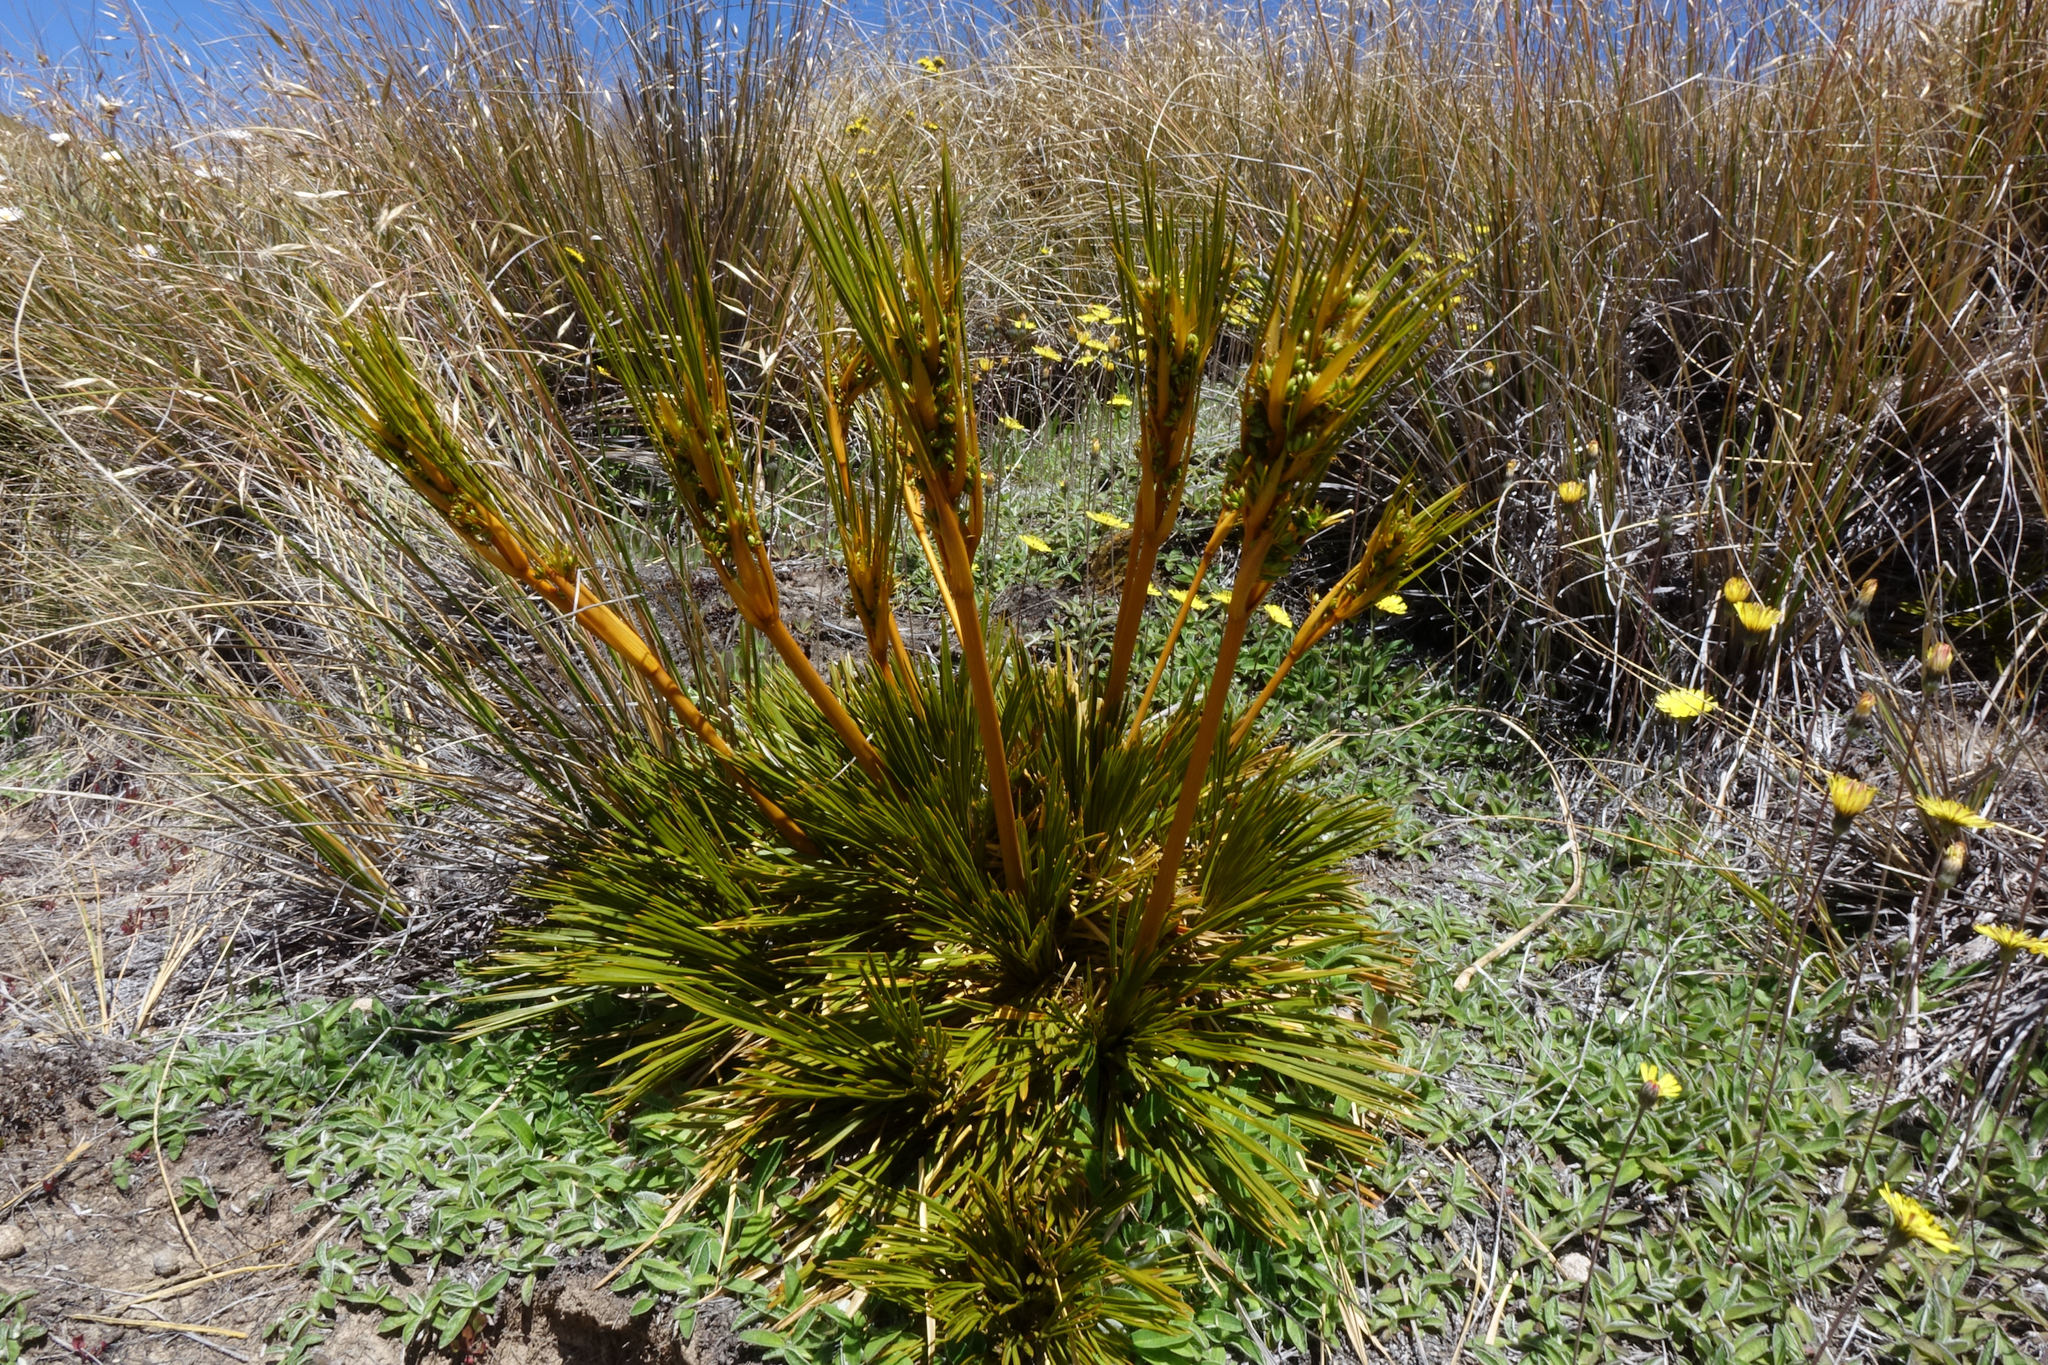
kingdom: Plantae
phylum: Tracheophyta
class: Magnoliopsida
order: Apiales
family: Apiaceae
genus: Aciphylla
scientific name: Aciphylla montana
